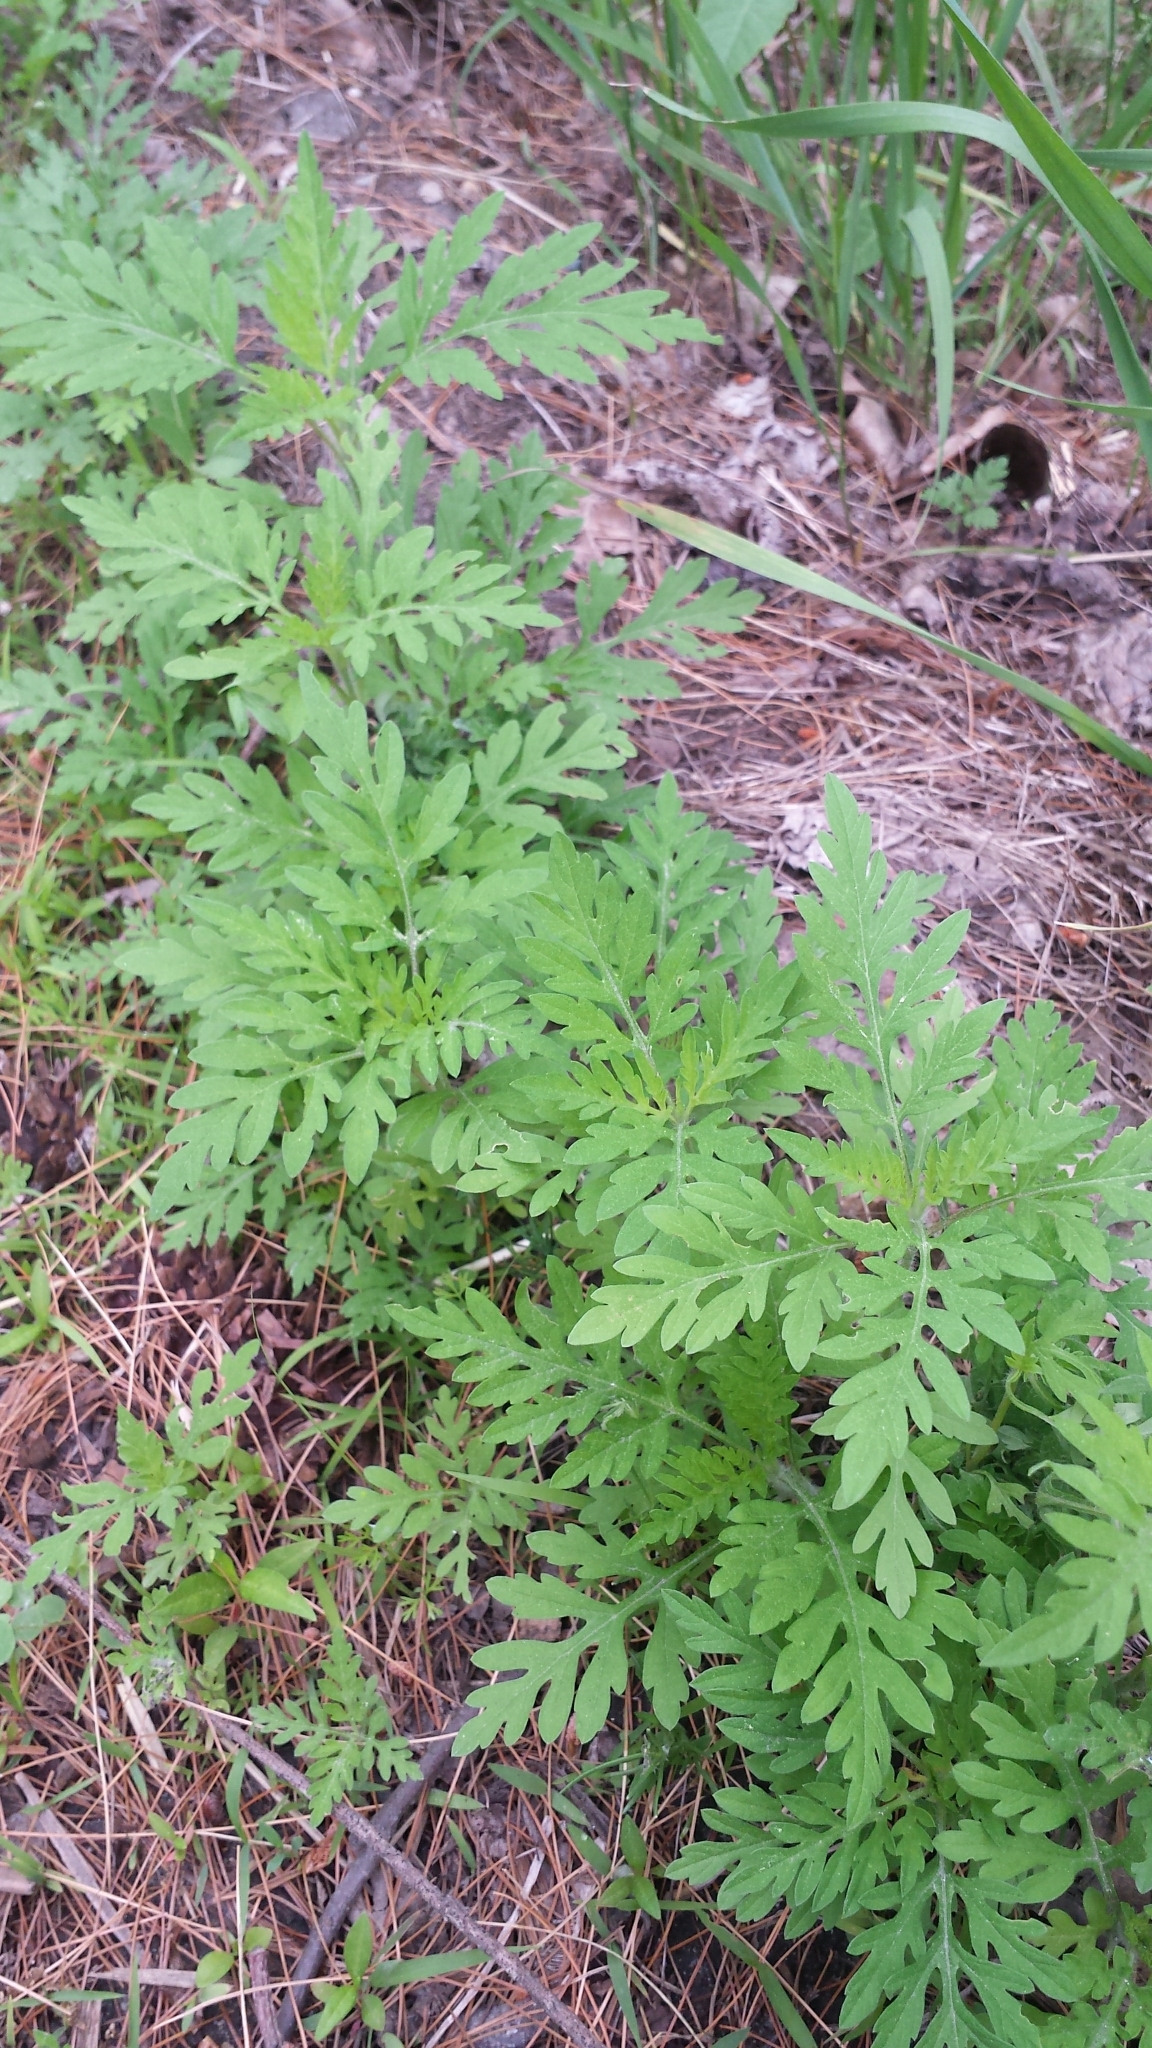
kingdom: Plantae
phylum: Tracheophyta
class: Magnoliopsida
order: Asterales
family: Asteraceae
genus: Ambrosia
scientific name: Ambrosia artemisiifolia
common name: Annual ragweed
